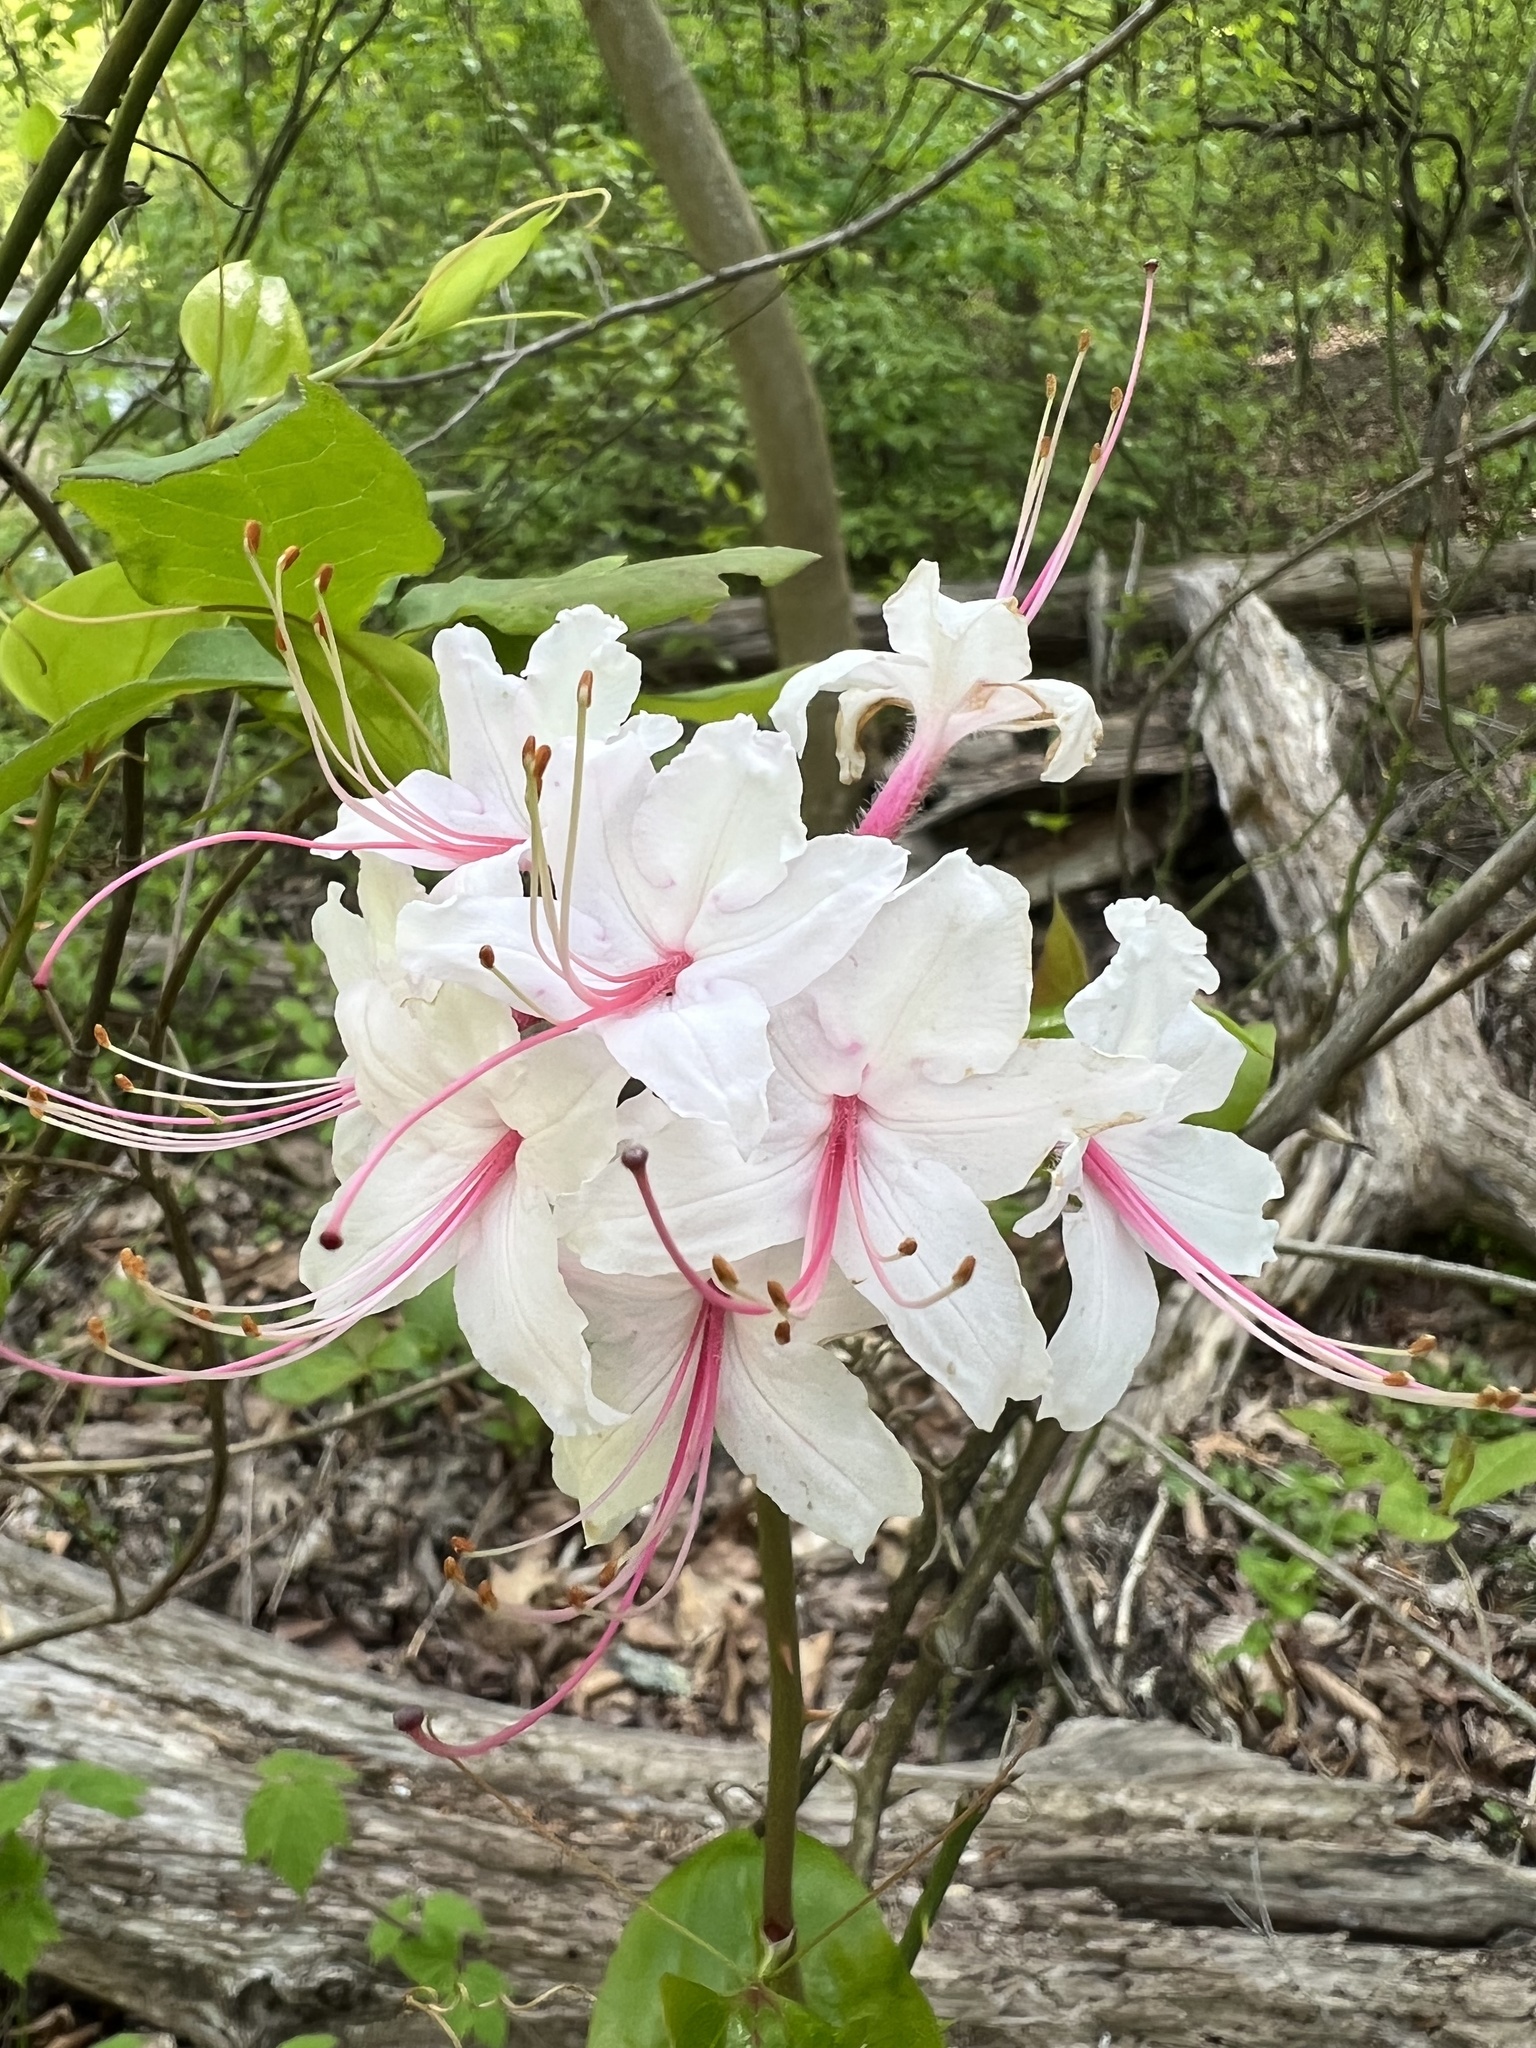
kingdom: Plantae
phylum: Tracheophyta
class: Magnoliopsida
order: Ericales
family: Ericaceae
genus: Rhododendron
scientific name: Rhododendron periclymenoides
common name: Election-pink
